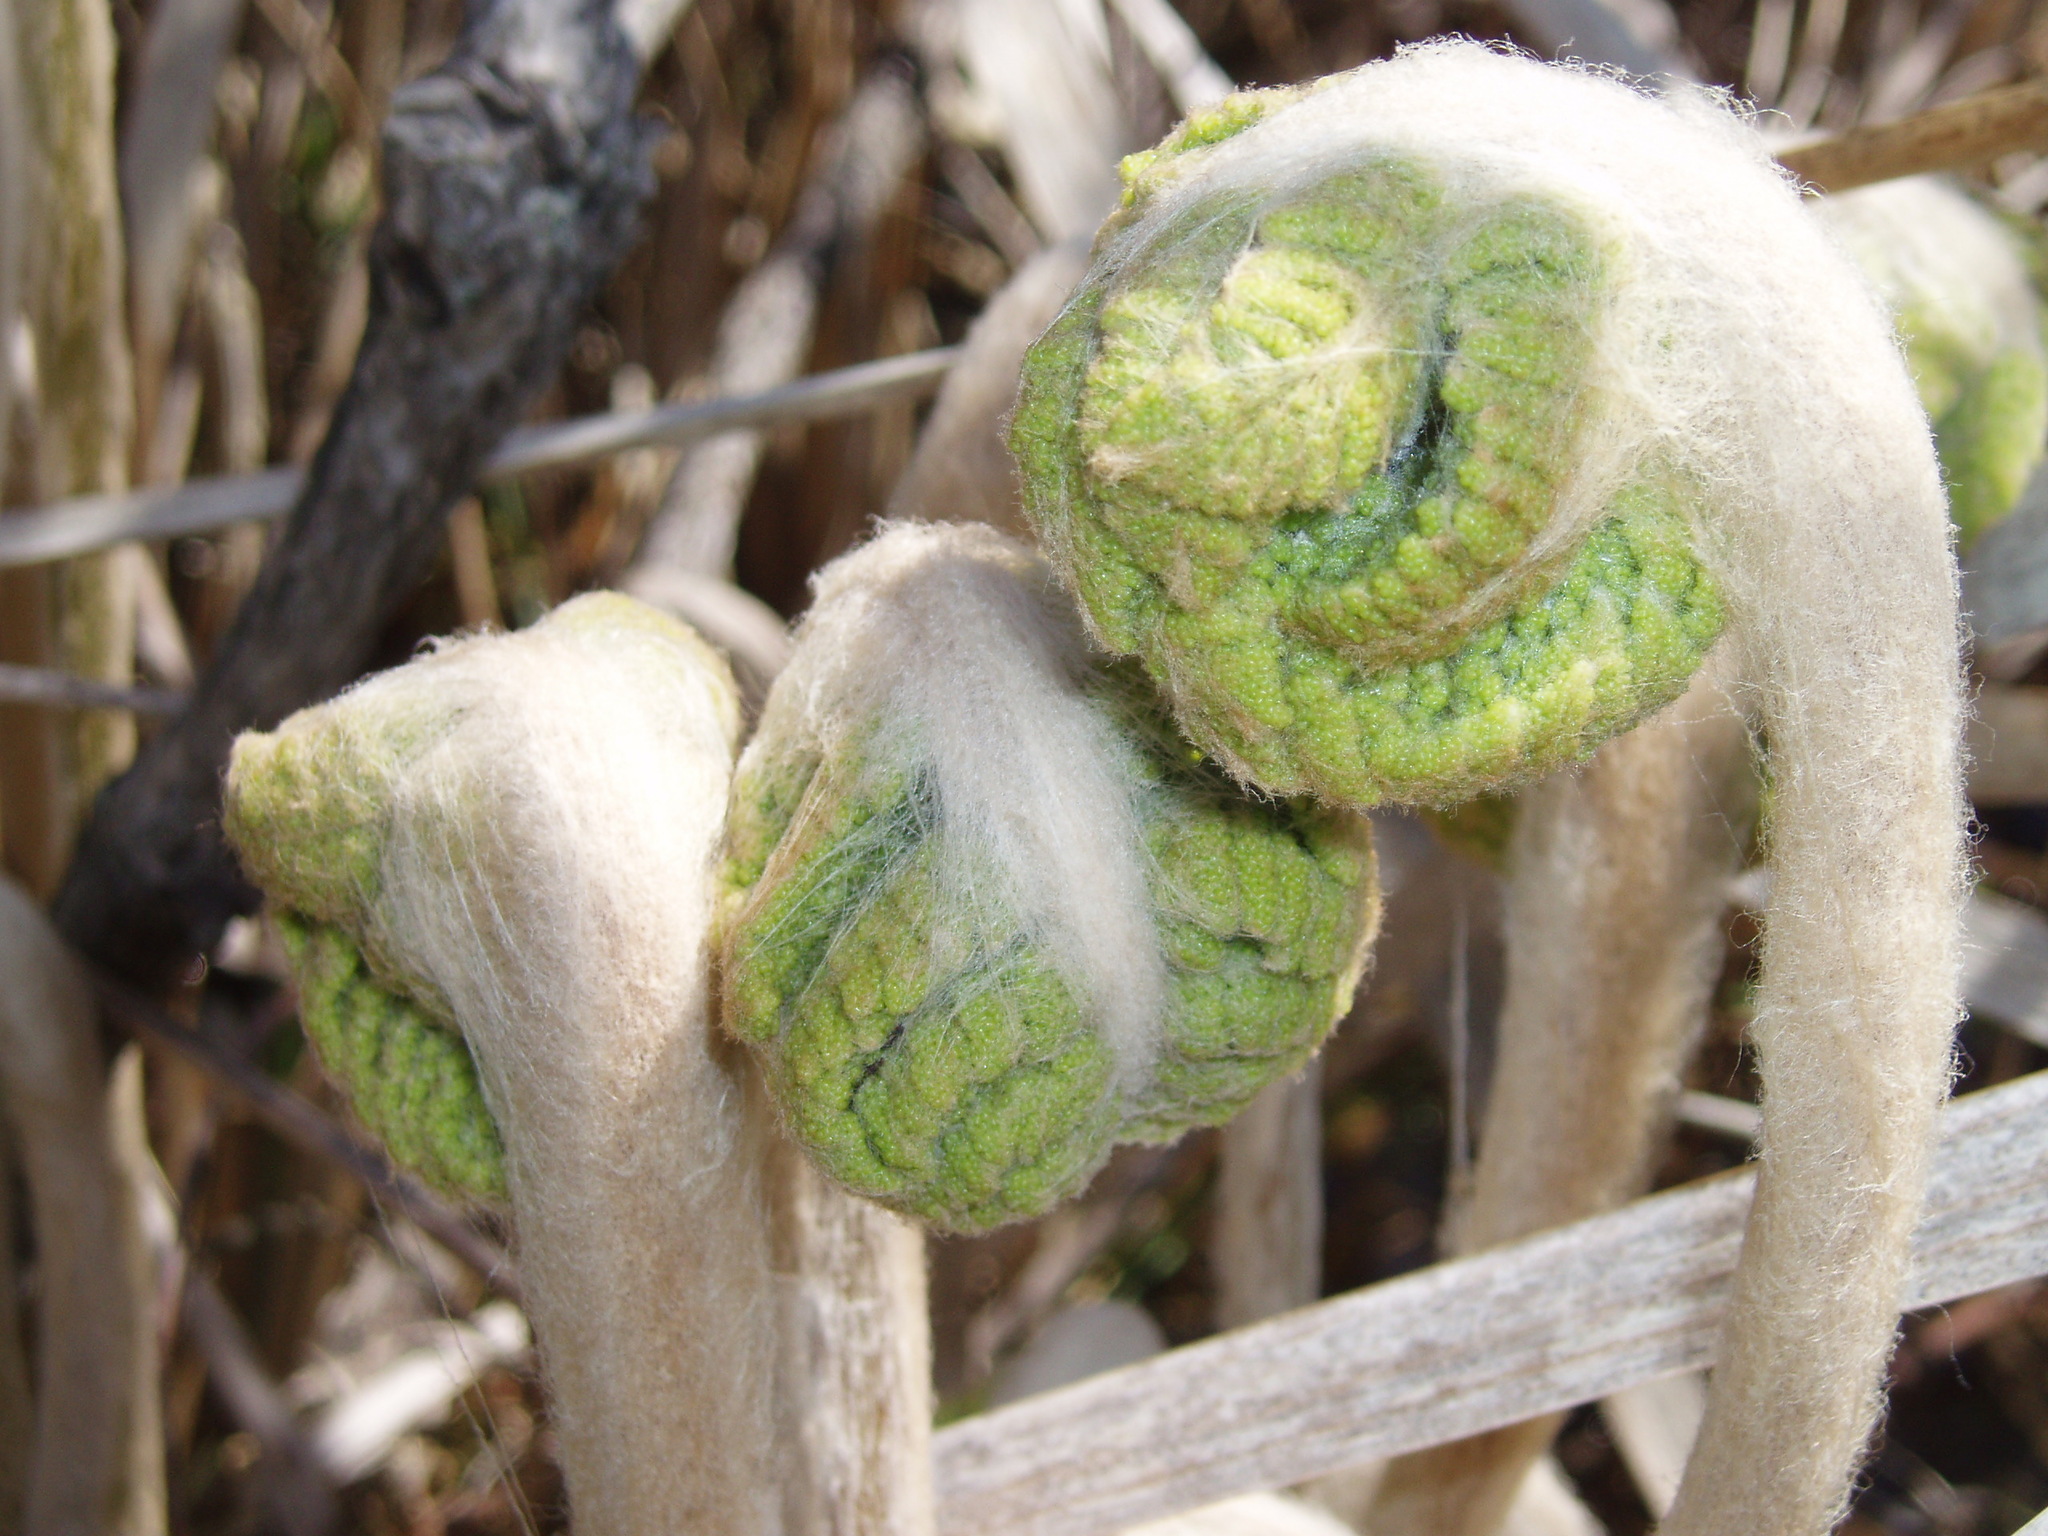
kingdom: Plantae
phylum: Tracheophyta
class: Polypodiopsida
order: Osmundales
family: Osmundaceae
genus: Osmundastrum
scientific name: Osmundastrum cinnamomeum
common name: Cinnamon fern
